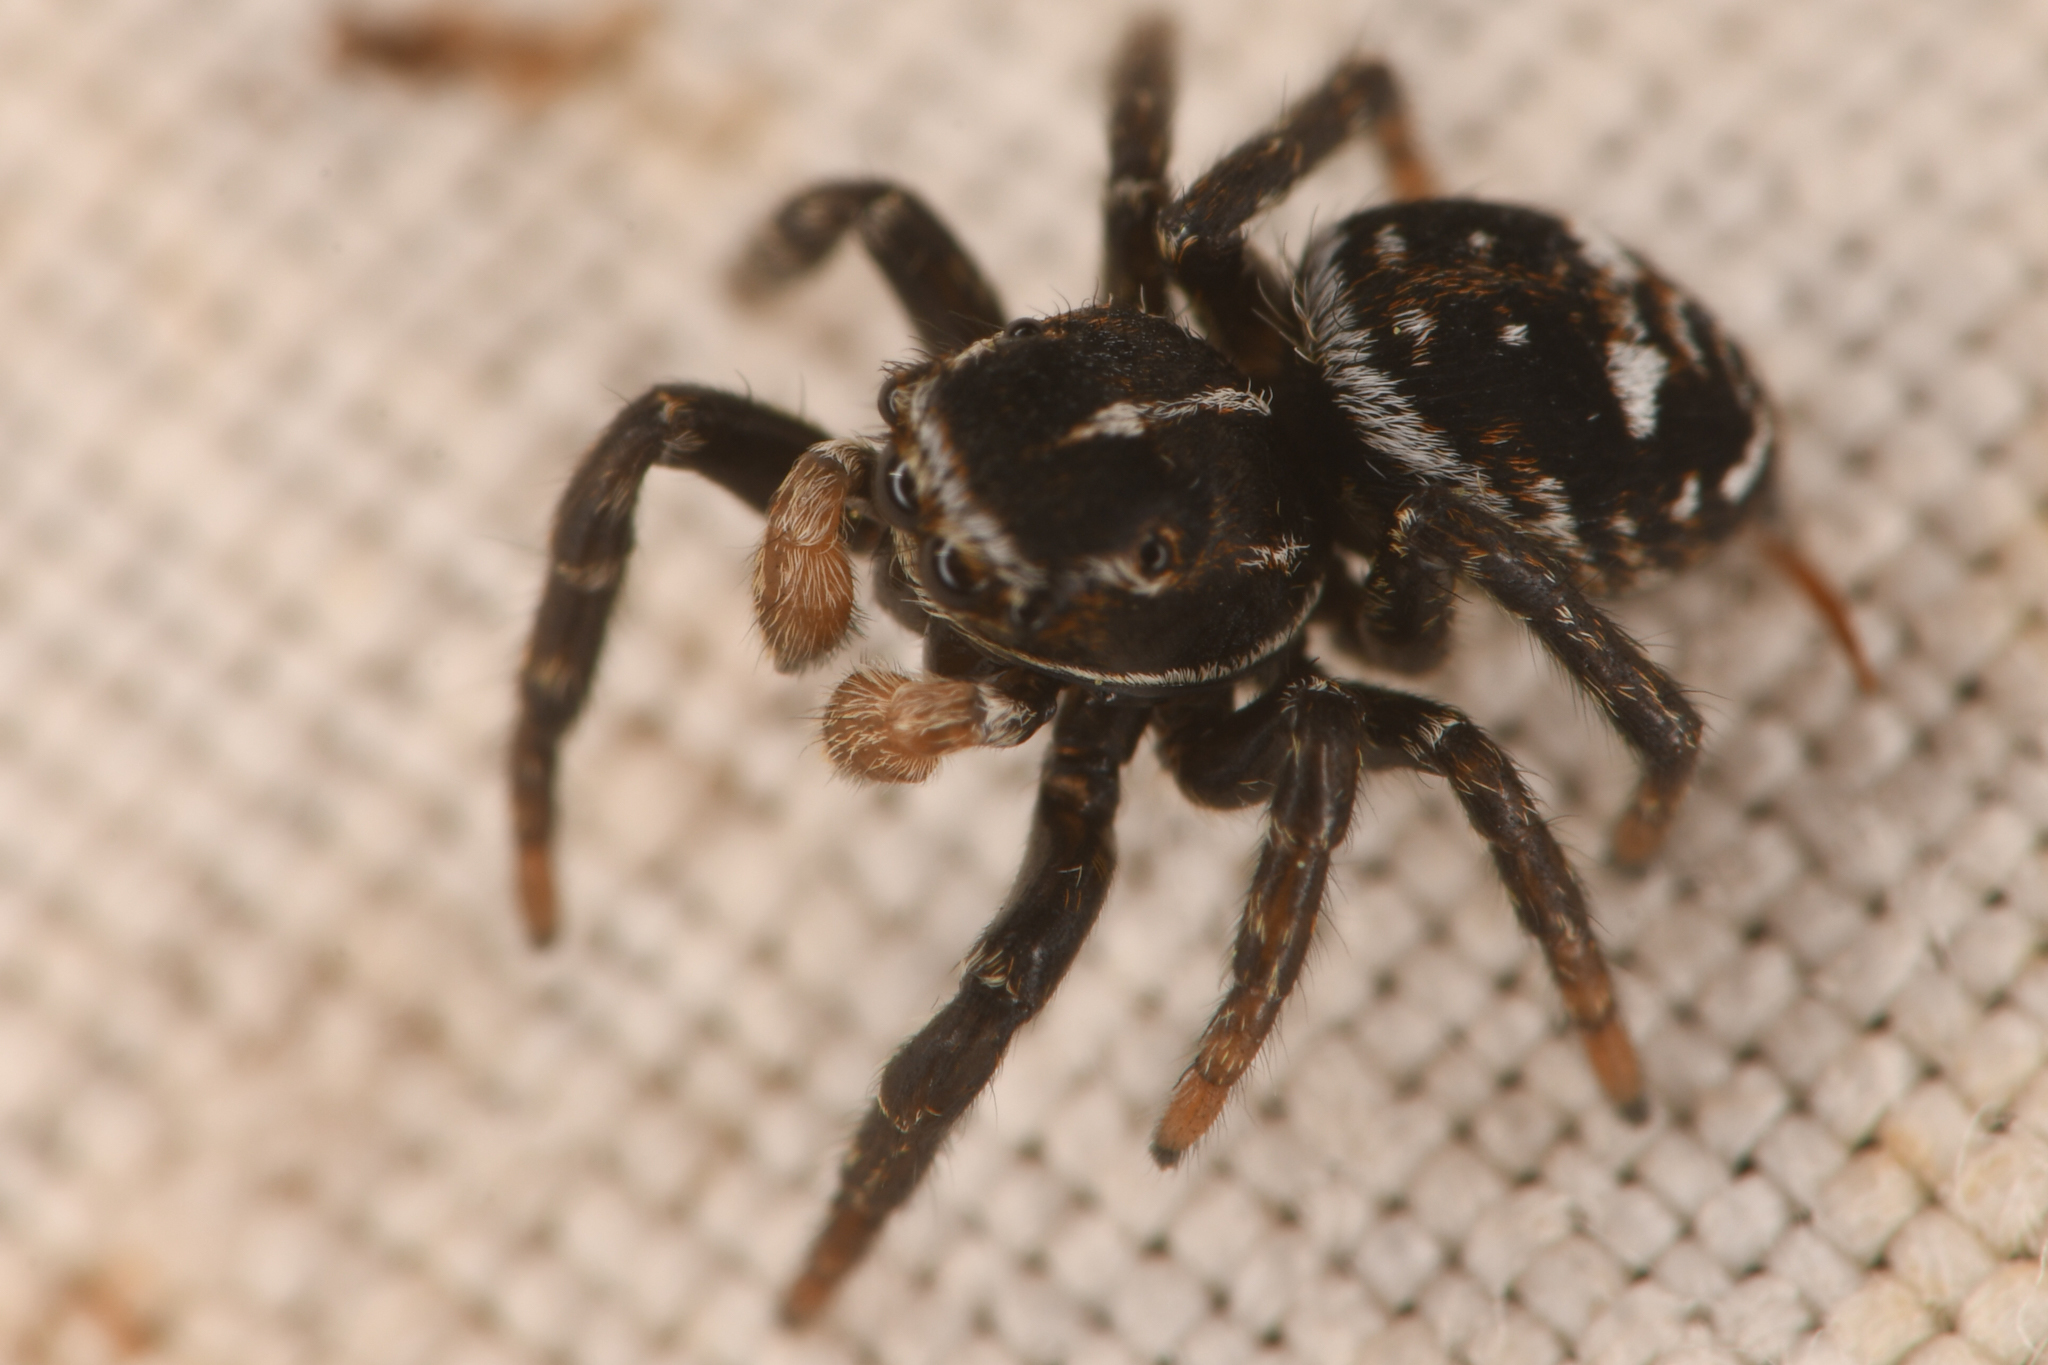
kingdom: Animalia
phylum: Arthropoda
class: Arachnida
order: Araneae
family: Salticidae
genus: Attulus
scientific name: Attulus floricola
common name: Flower jumping spider
